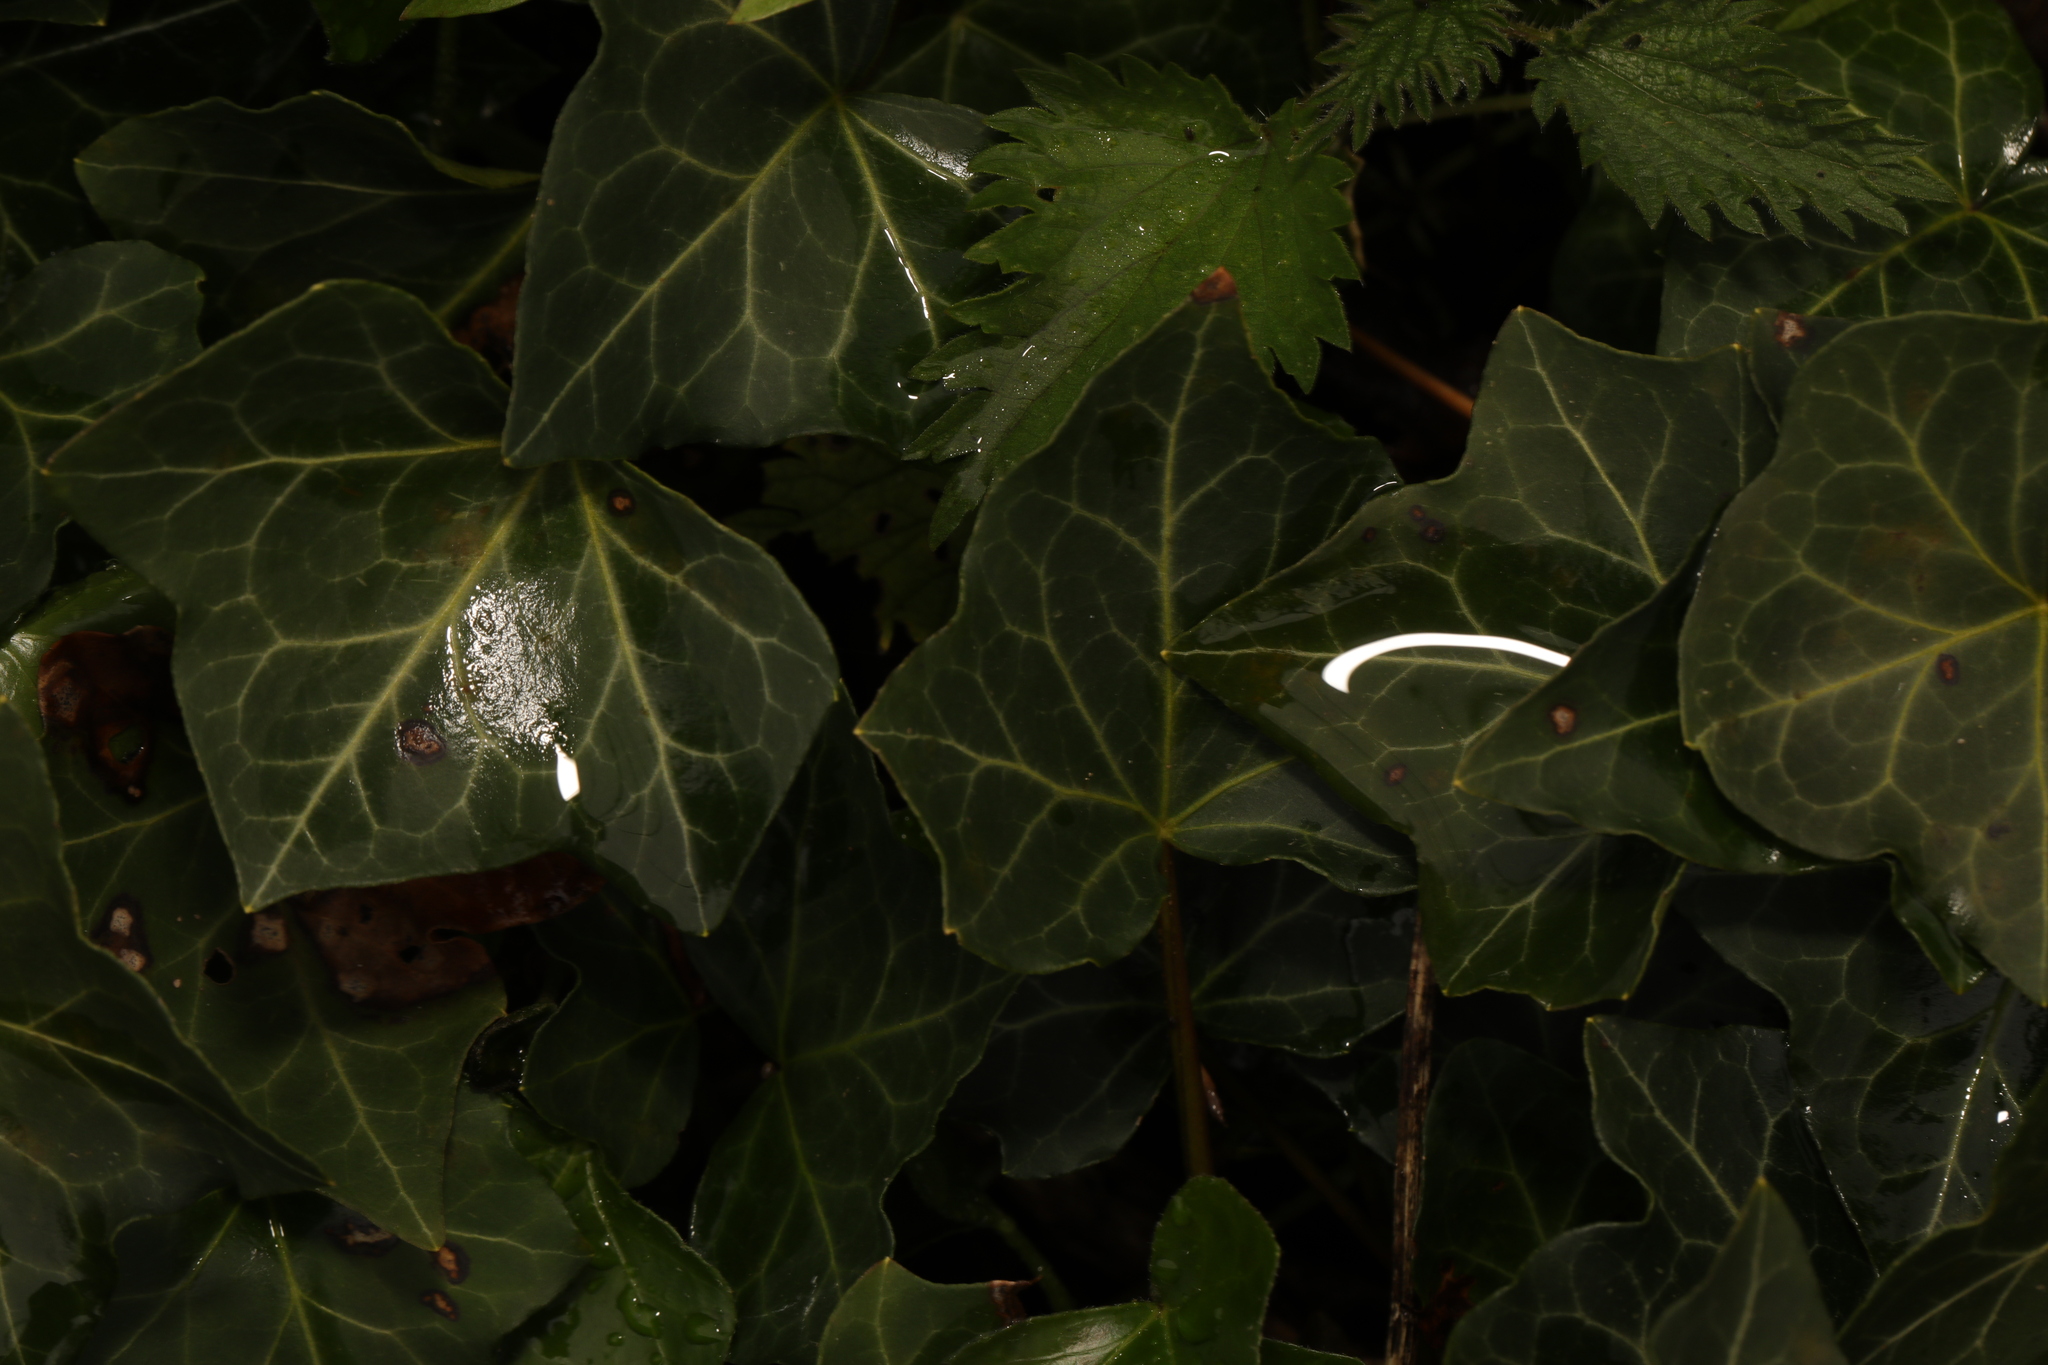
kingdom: Plantae
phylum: Tracheophyta
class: Magnoliopsida
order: Apiales
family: Araliaceae
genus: Hedera
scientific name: Hedera helix
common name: Ivy
